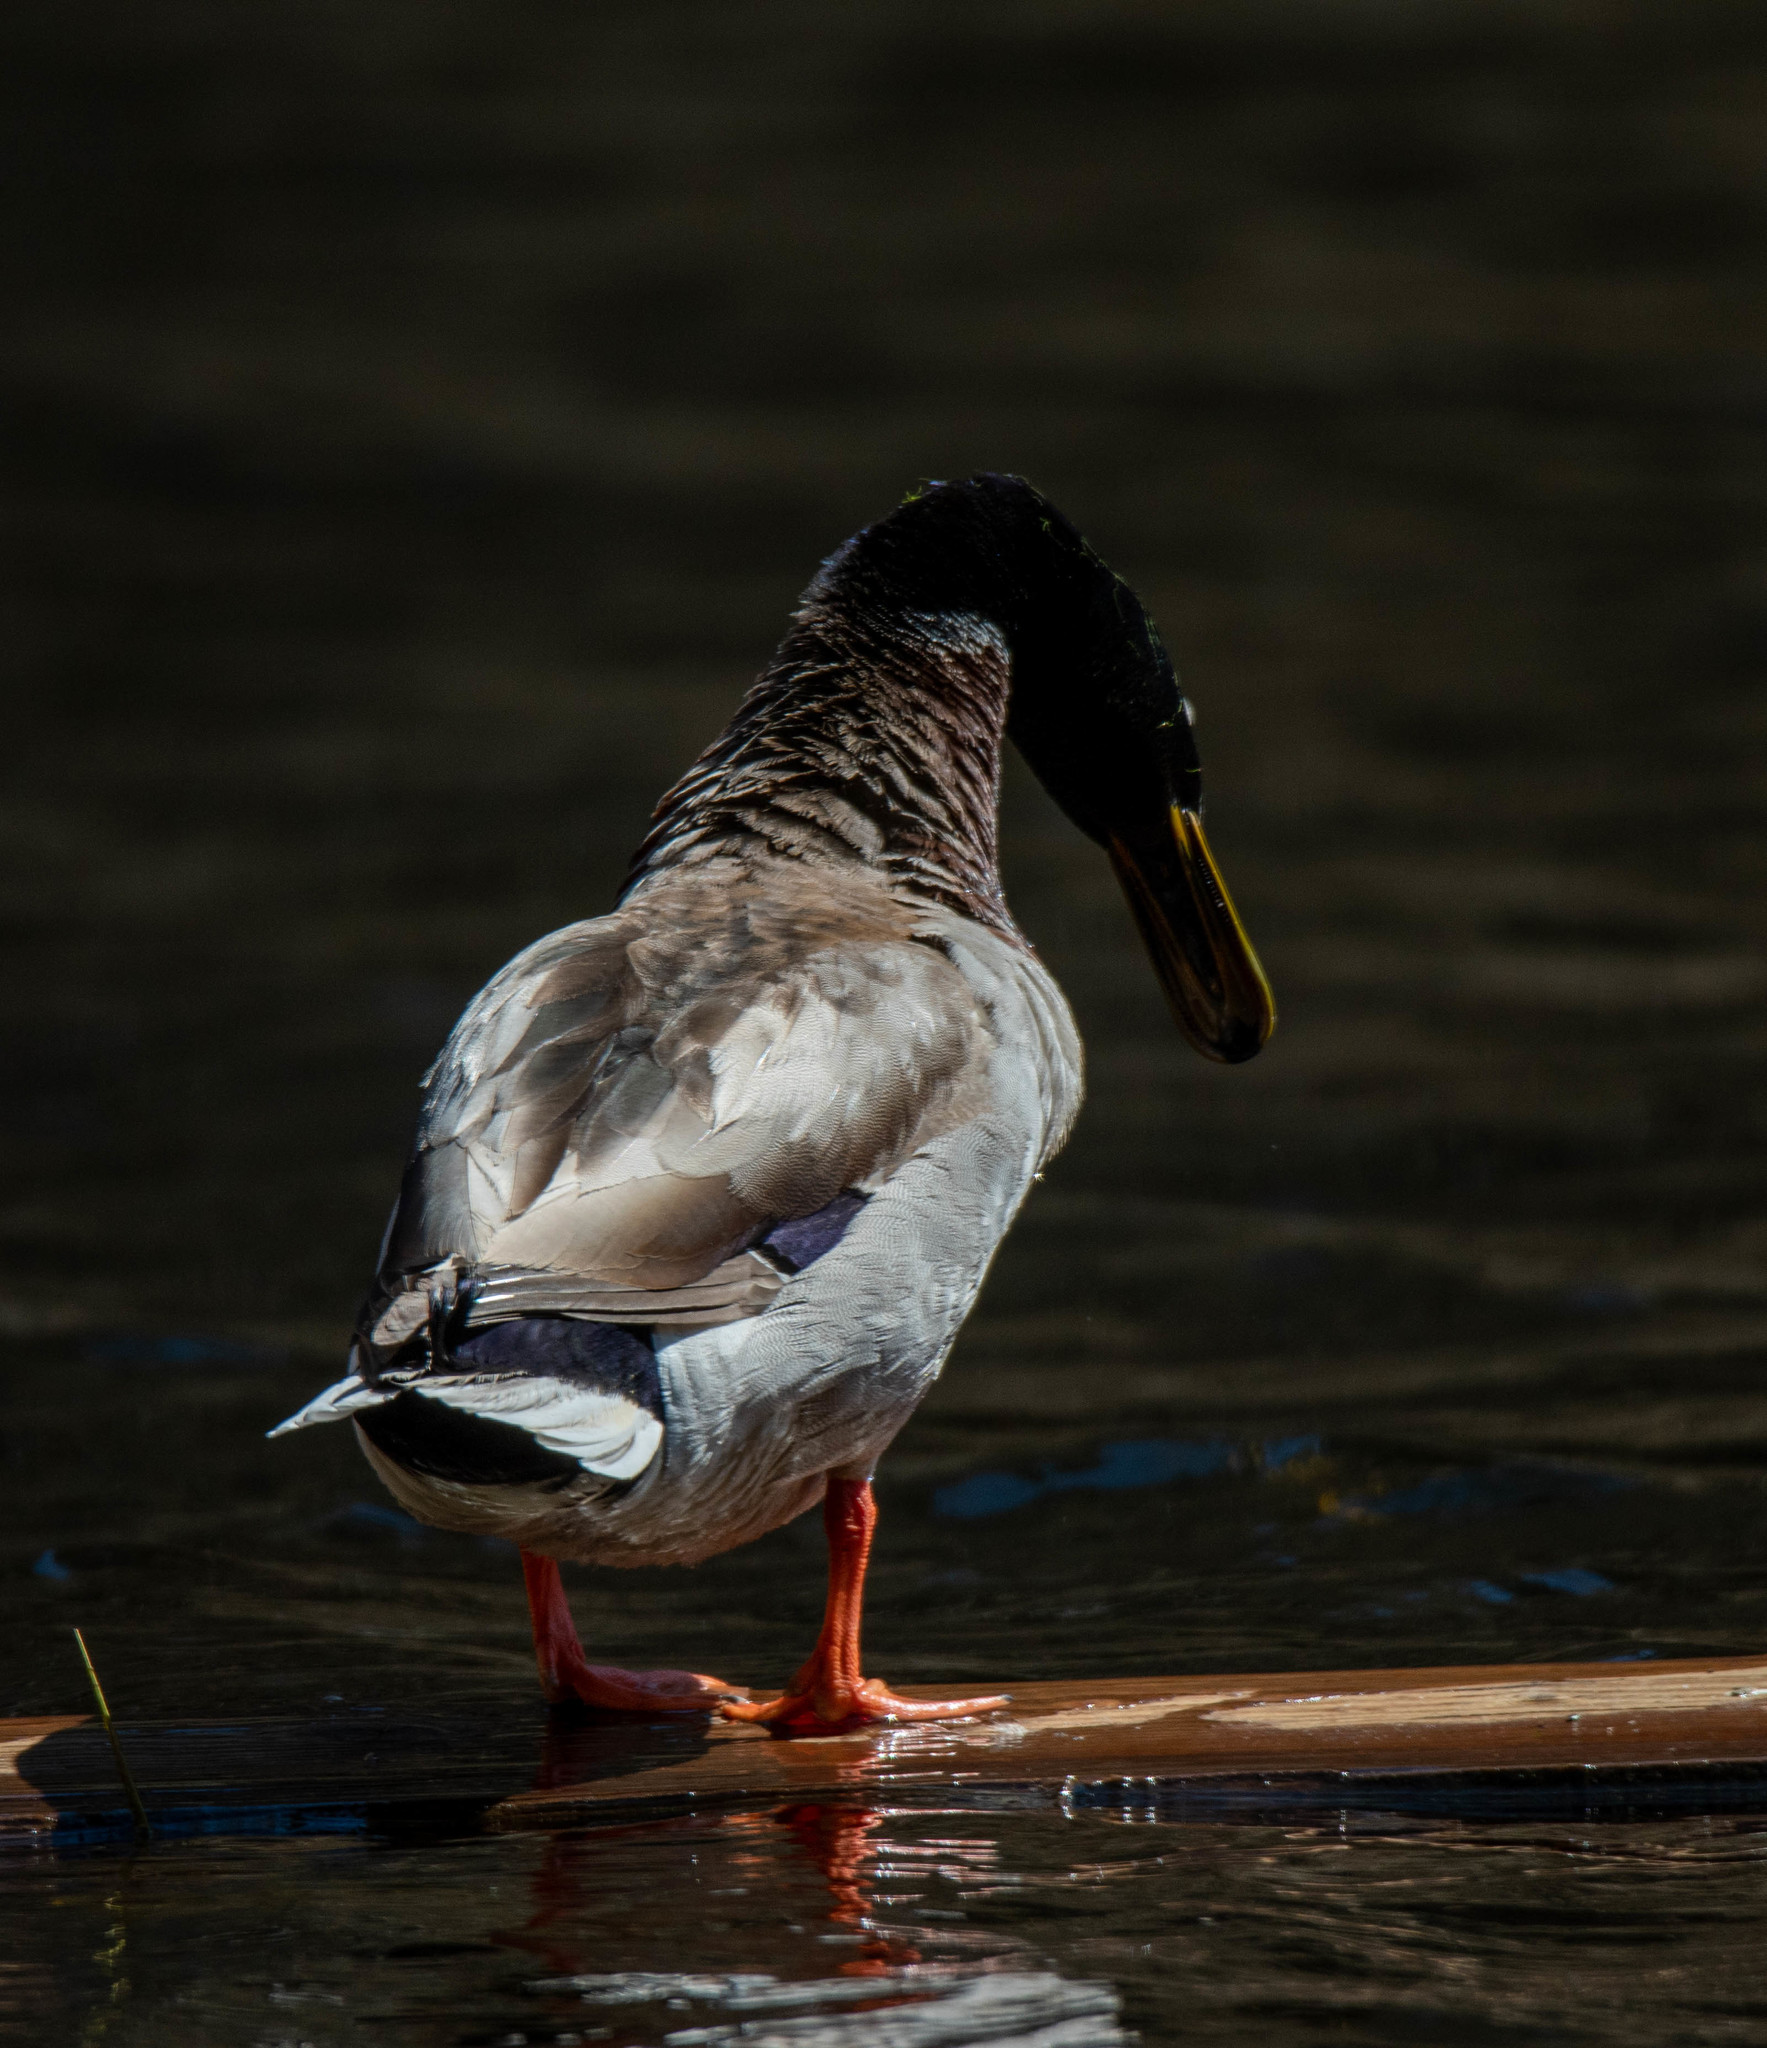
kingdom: Animalia
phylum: Chordata
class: Aves
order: Anseriformes
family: Anatidae
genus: Anas
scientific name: Anas platyrhynchos
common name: Mallard
